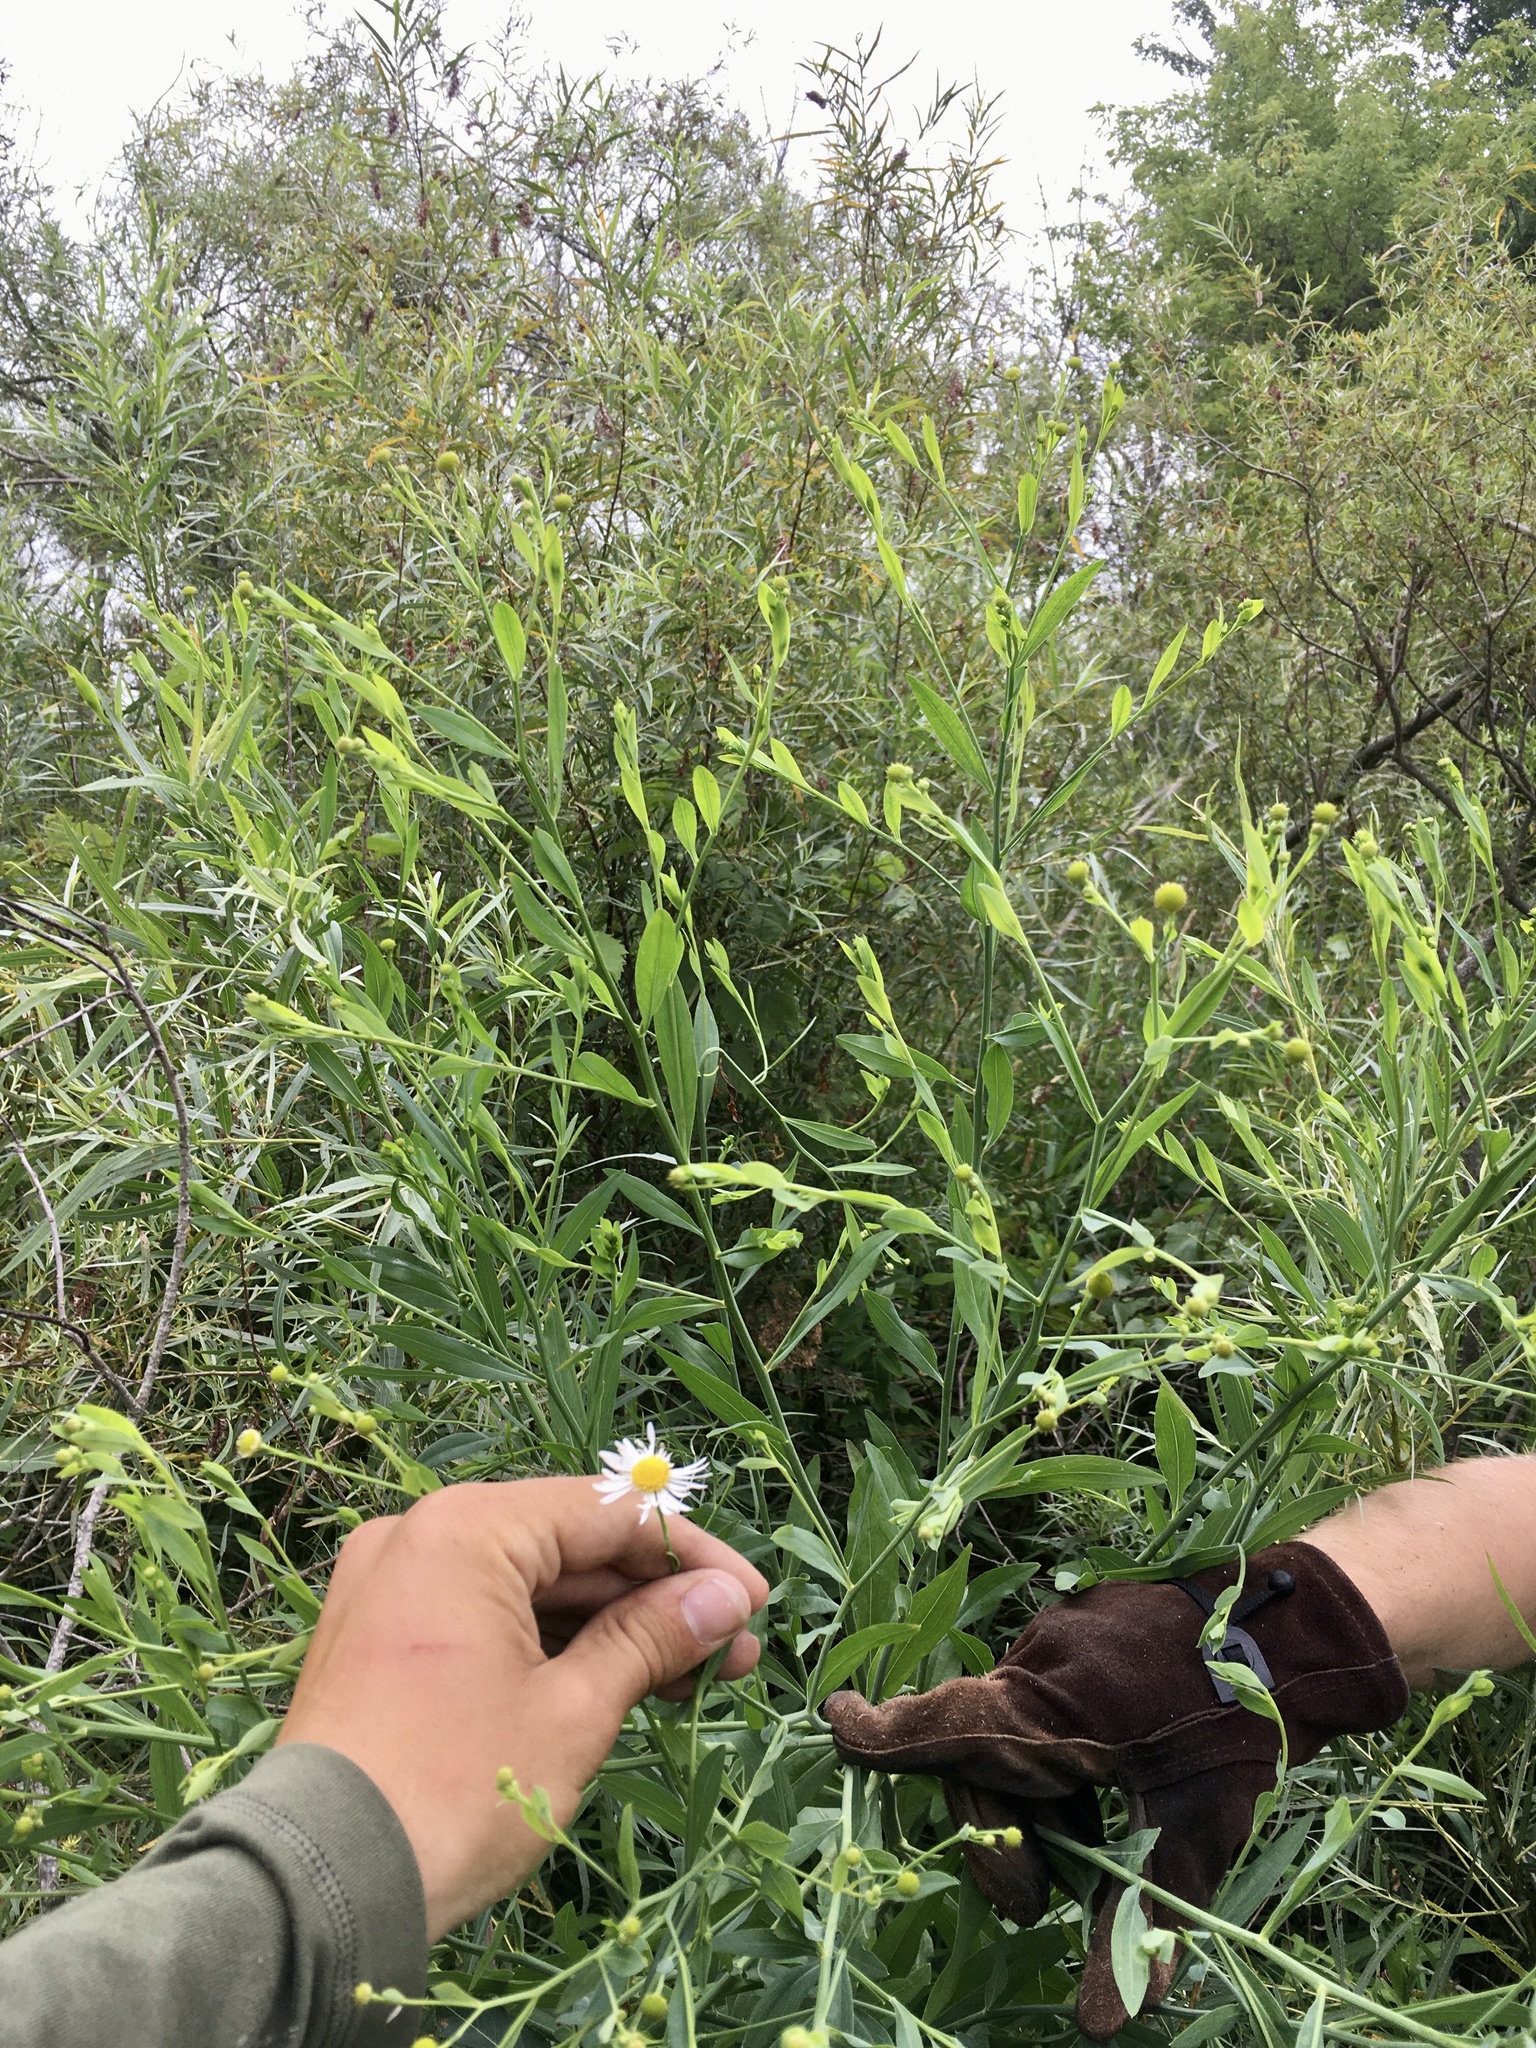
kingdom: Plantae
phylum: Tracheophyta
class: Magnoliopsida
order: Asterales
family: Asteraceae
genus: Boltonia
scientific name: Boltonia asteroides
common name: False chamomile
